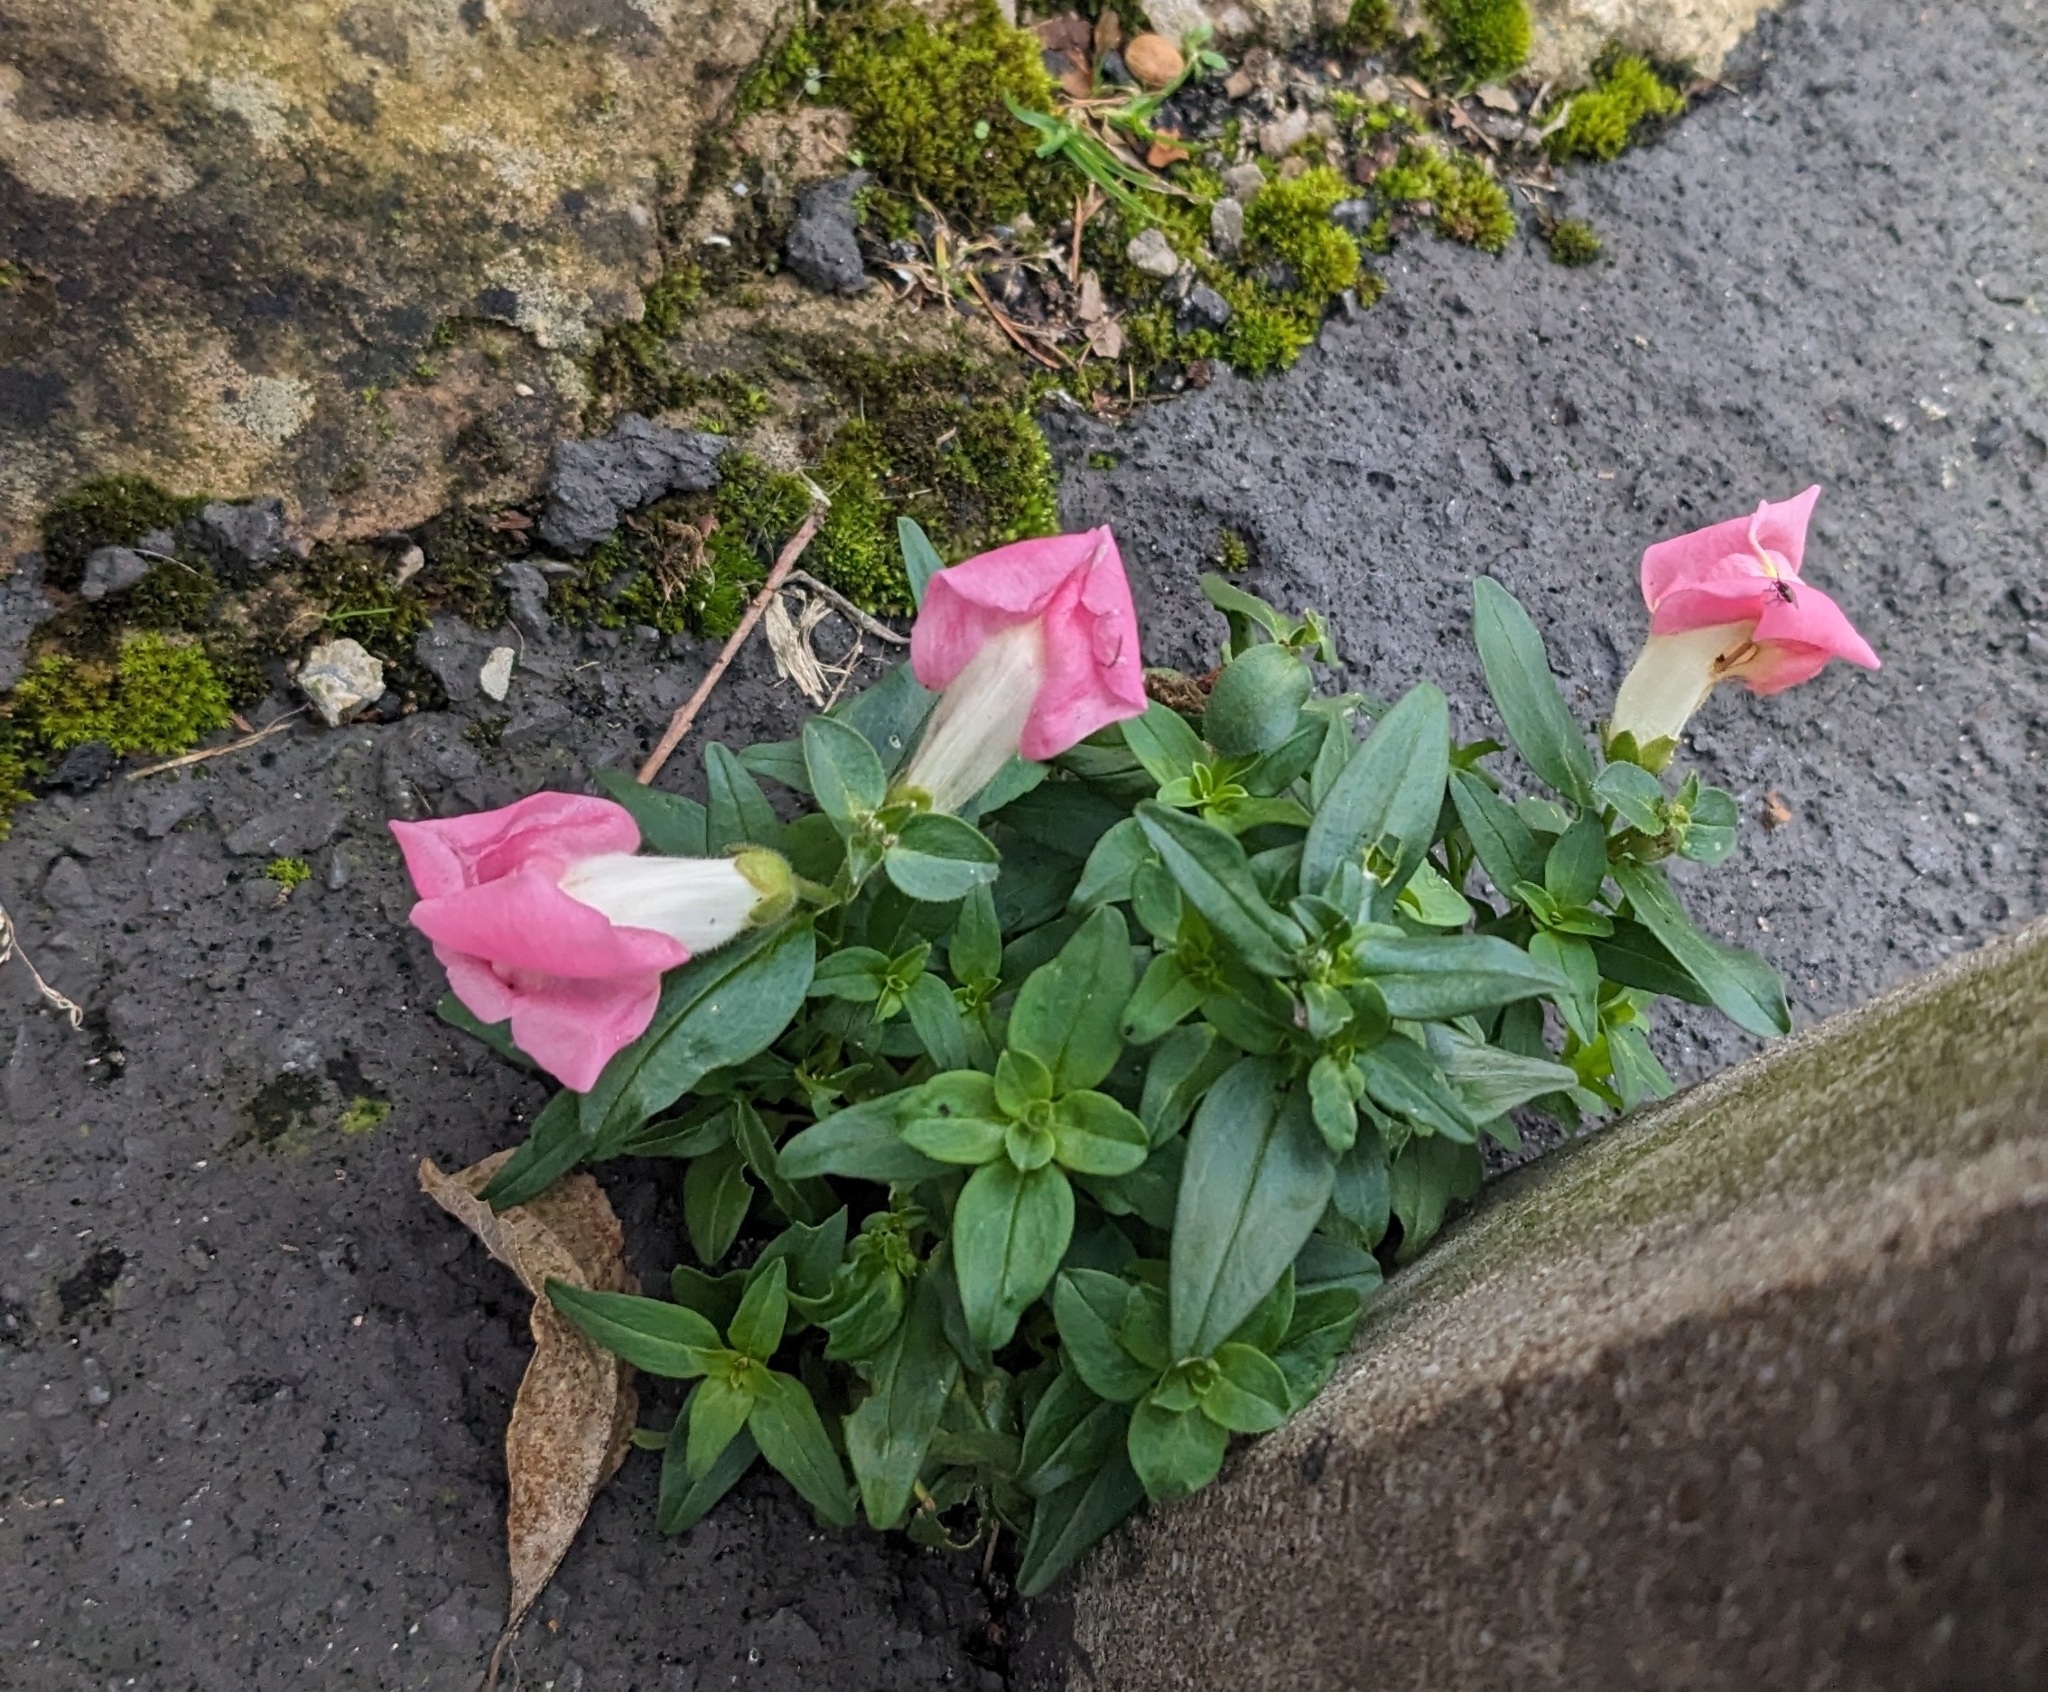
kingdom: Plantae
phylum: Tracheophyta
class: Magnoliopsida
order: Lamiales
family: Plantaginaceae
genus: Antirrhinum
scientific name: Antirrhinum majus
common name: Snapdragon
